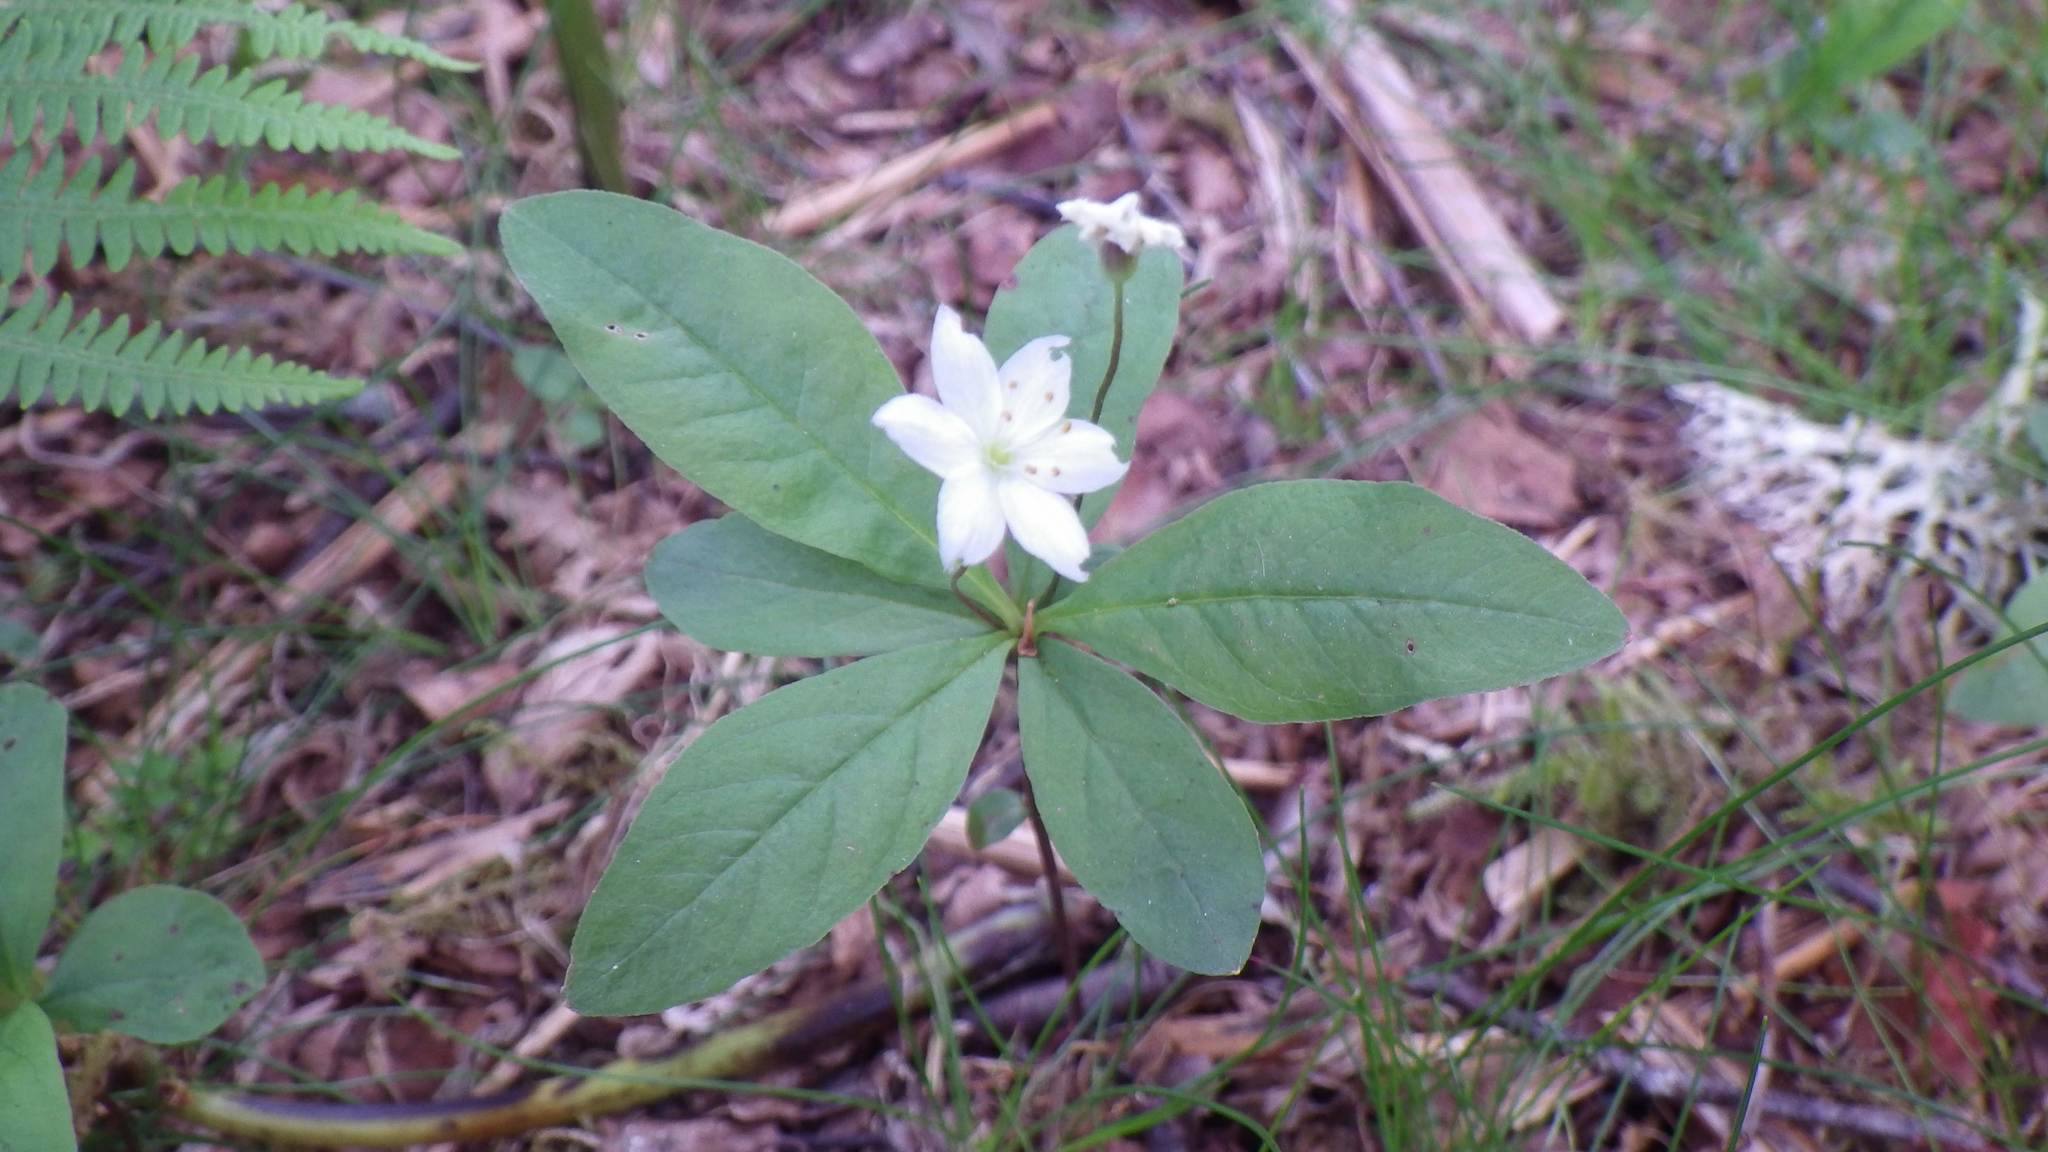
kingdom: Plantae
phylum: Tracheophyta
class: Magnoliopsida
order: Ericales
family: Primulaceae
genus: Lysimachia
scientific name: Lysimachia europaea
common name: Arctic starflower
